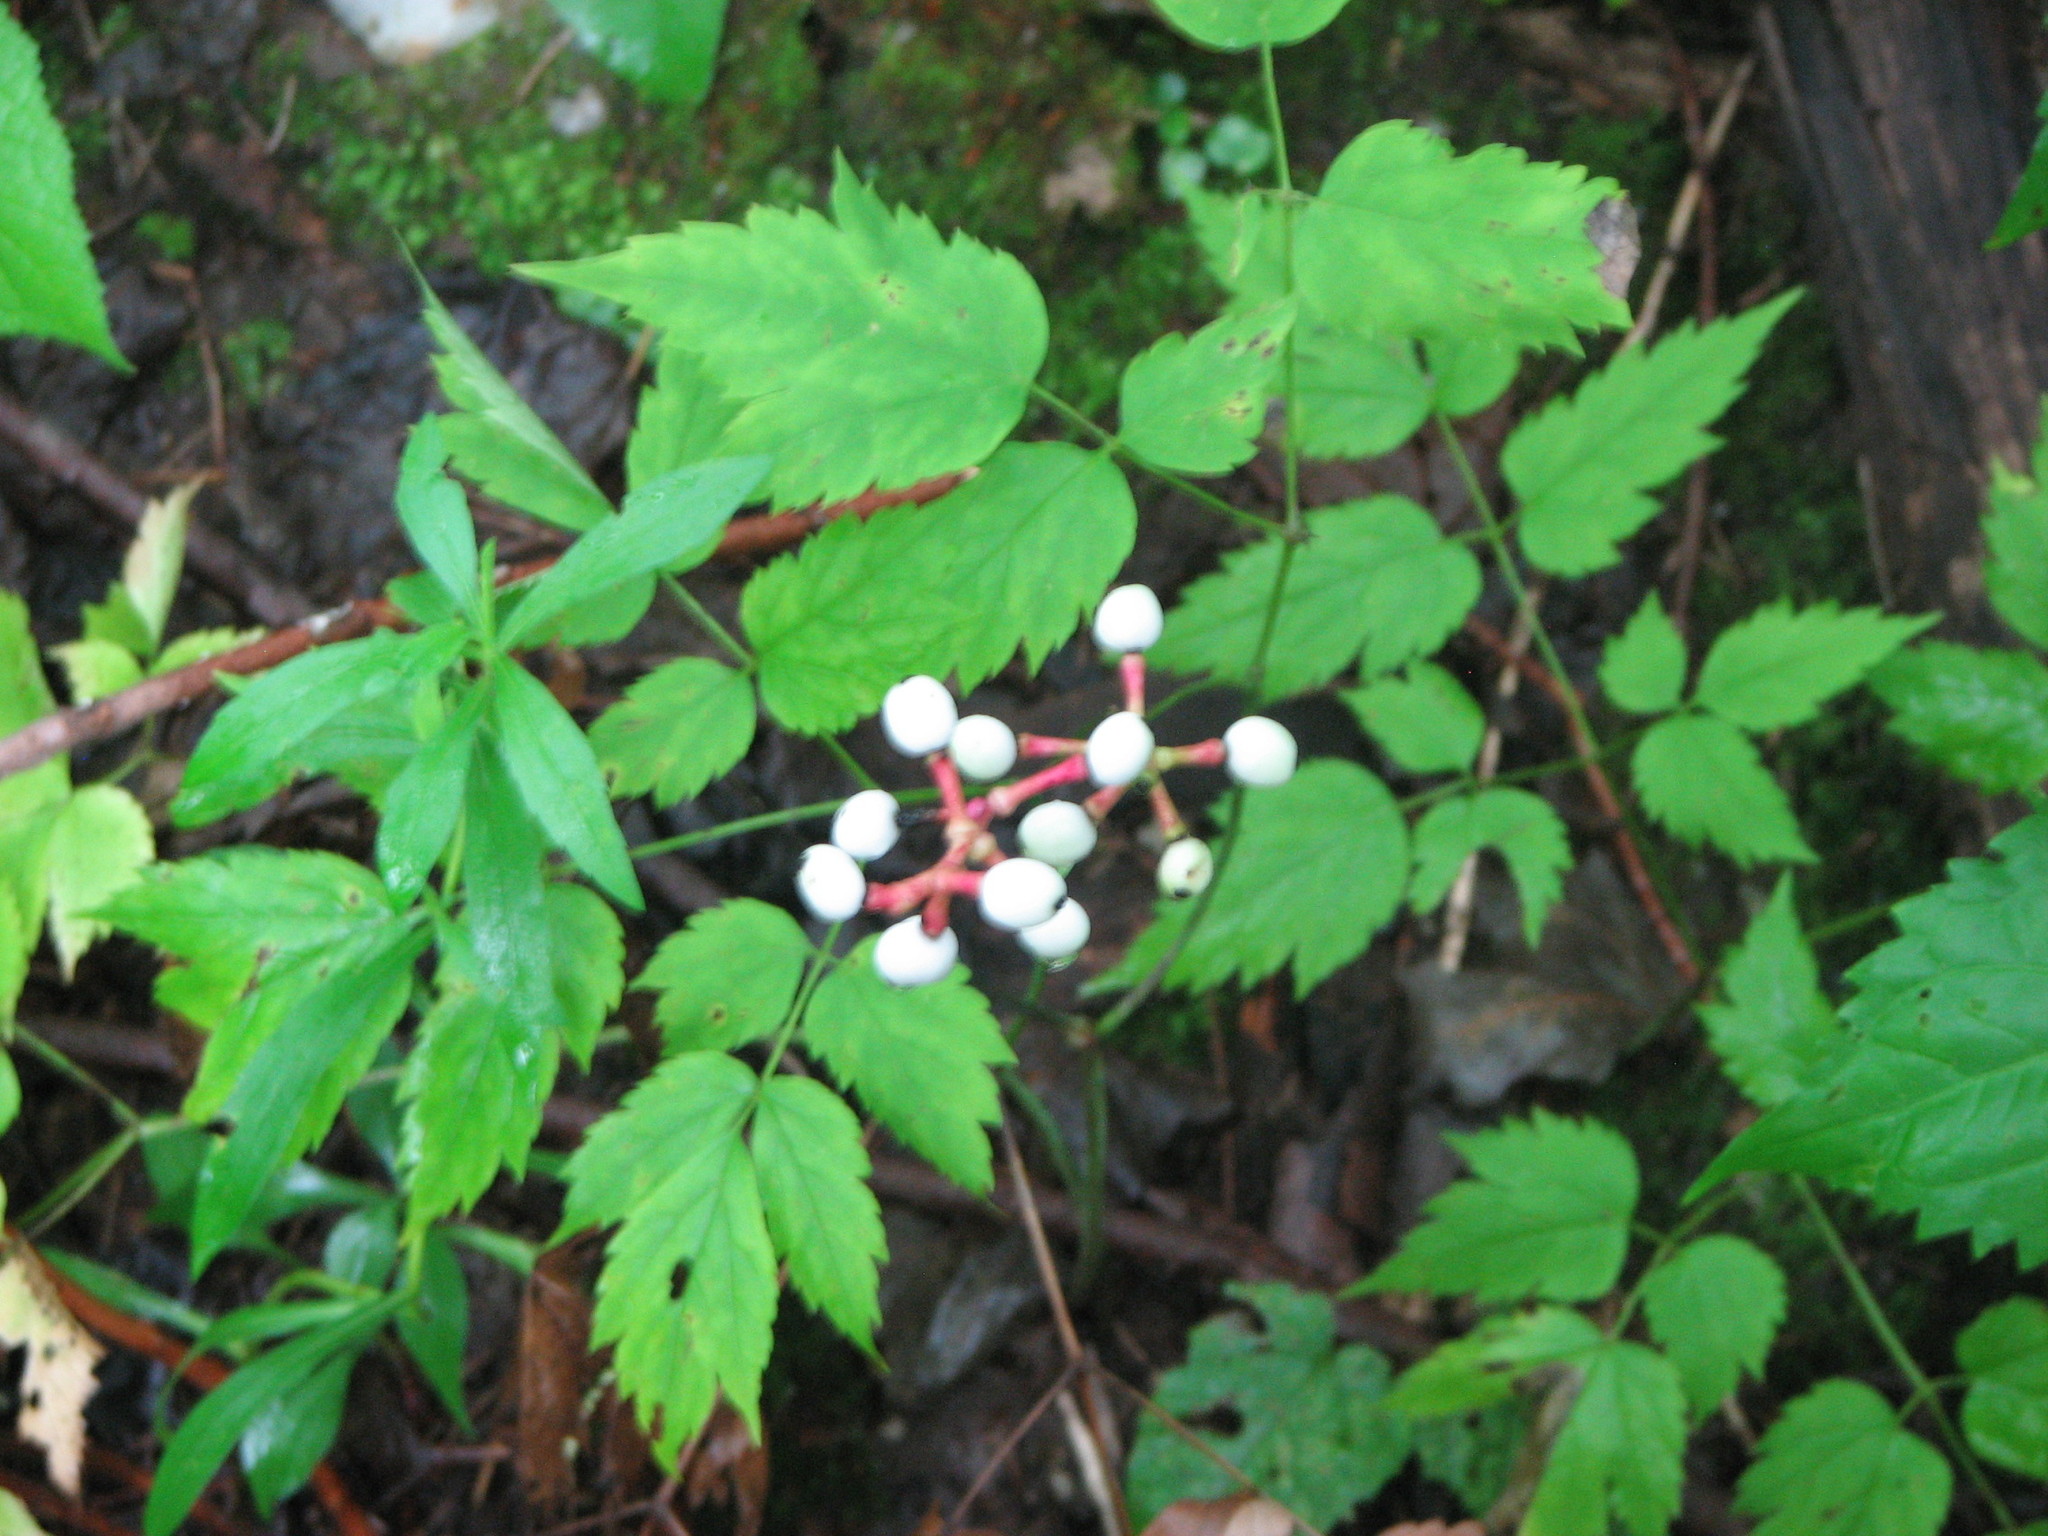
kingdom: Plantae
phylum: Tracheophyta
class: Magnoliopsida
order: Ranunculales
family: Ranunculaceae
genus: Actaea
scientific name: Actaea pachypoda
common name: Doll's-eyes
